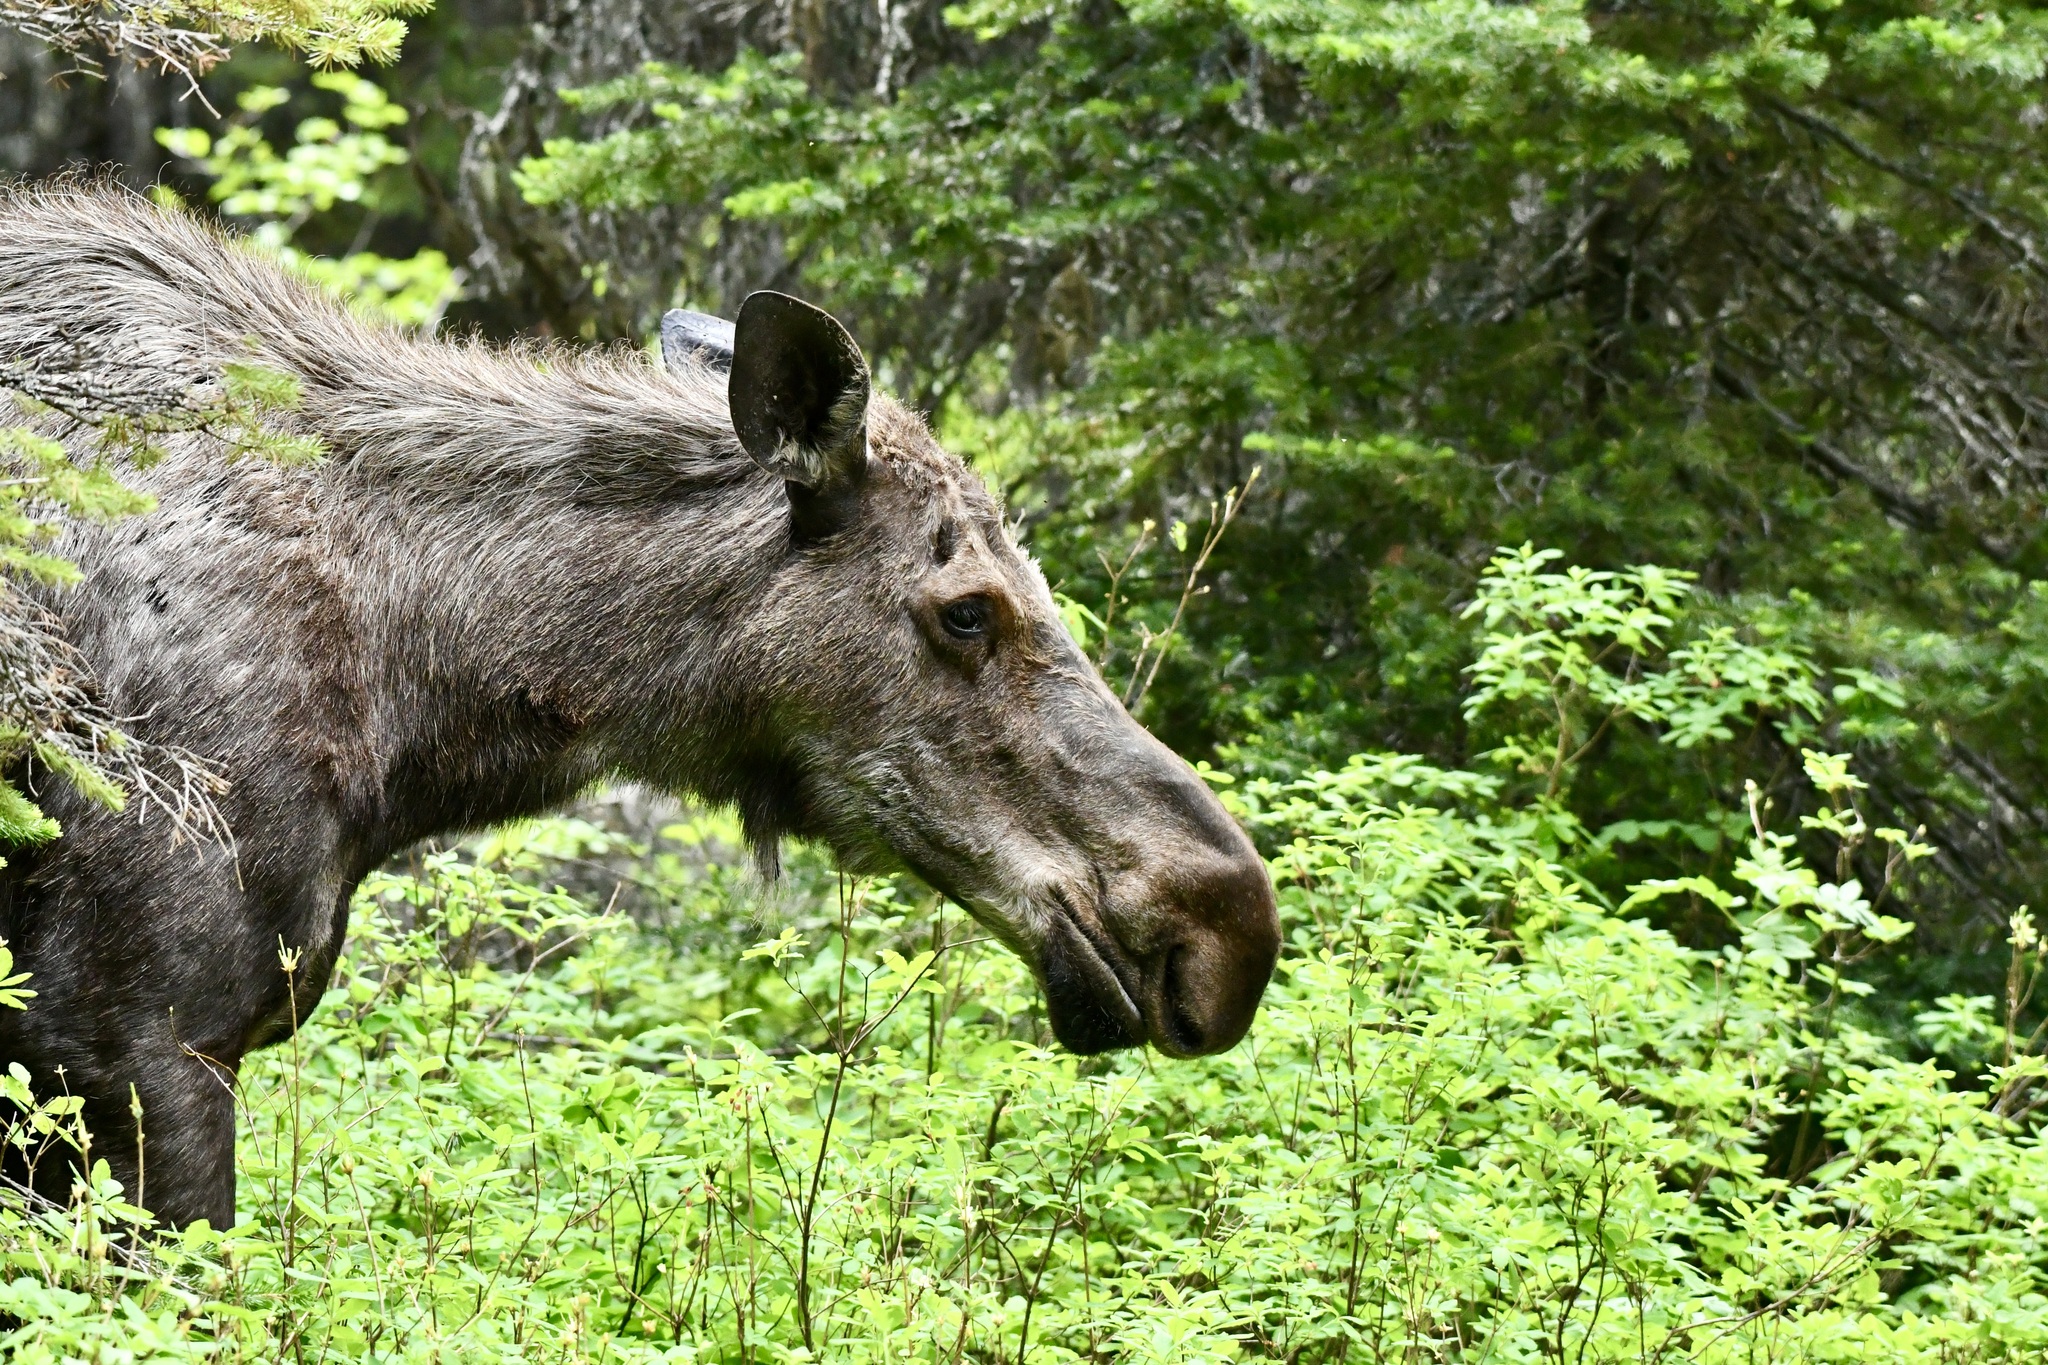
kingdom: Animalia
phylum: Chordata
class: Mammalia
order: Artiodactyla
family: Cervidae
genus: Alces
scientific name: Alces alces
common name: Moose
